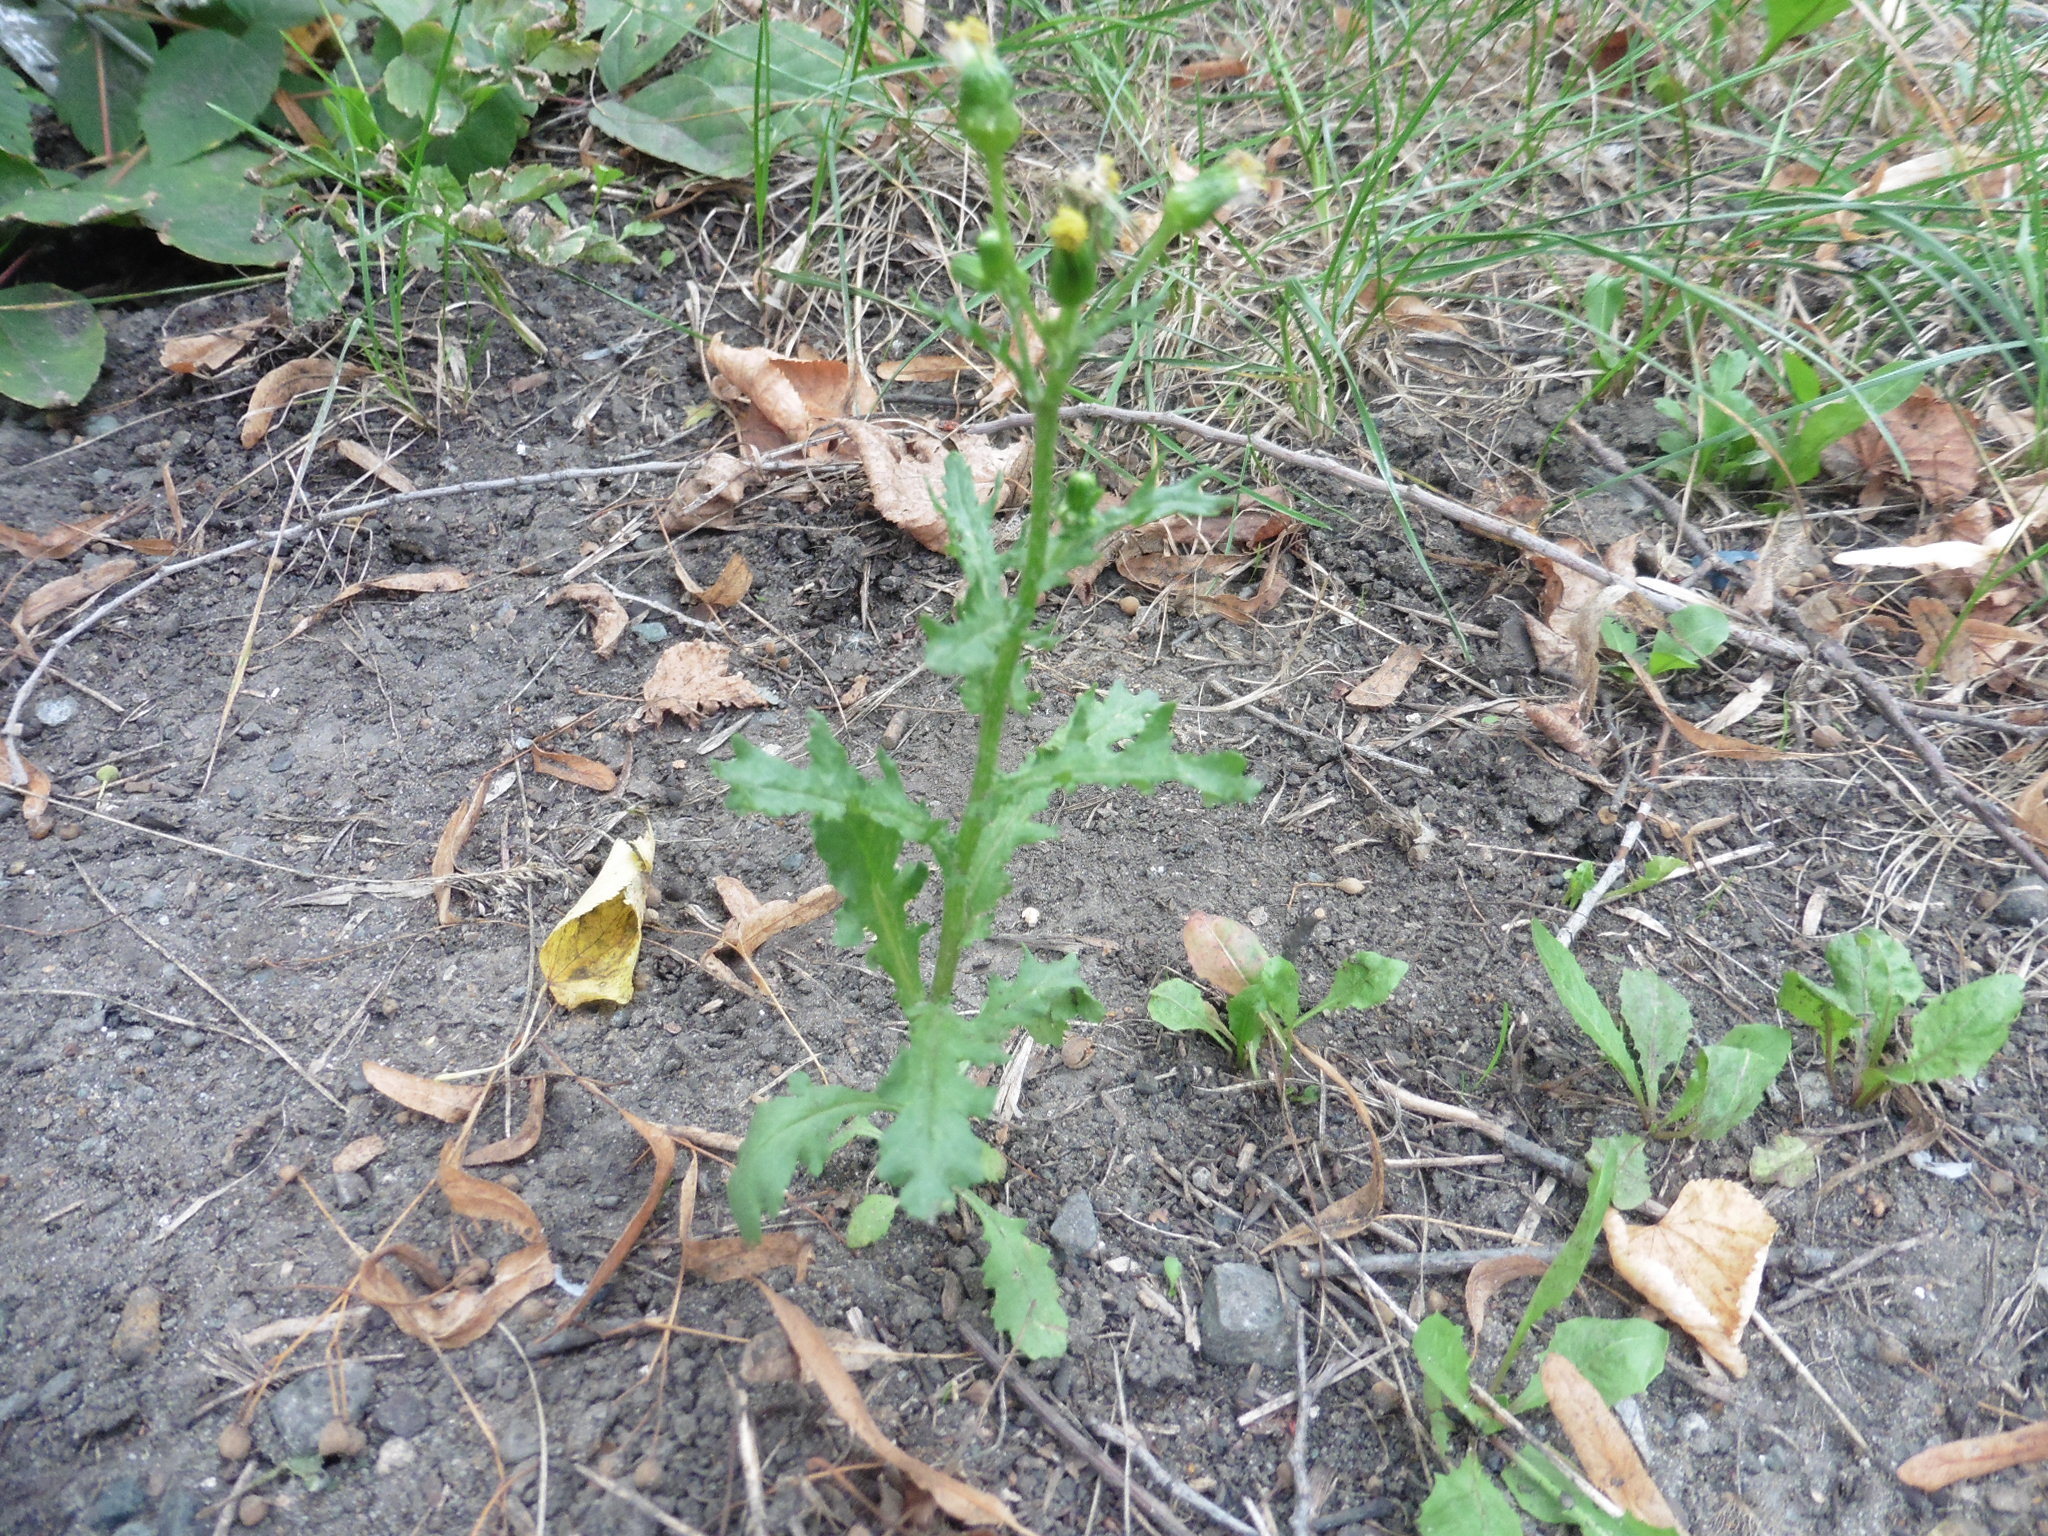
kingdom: Plantae
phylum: Tracheophyta
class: Magnoliopsida
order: Asterales
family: Asteraceae
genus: Senecio
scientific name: Senecio vulgaris
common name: Old-man-in-the-spring
